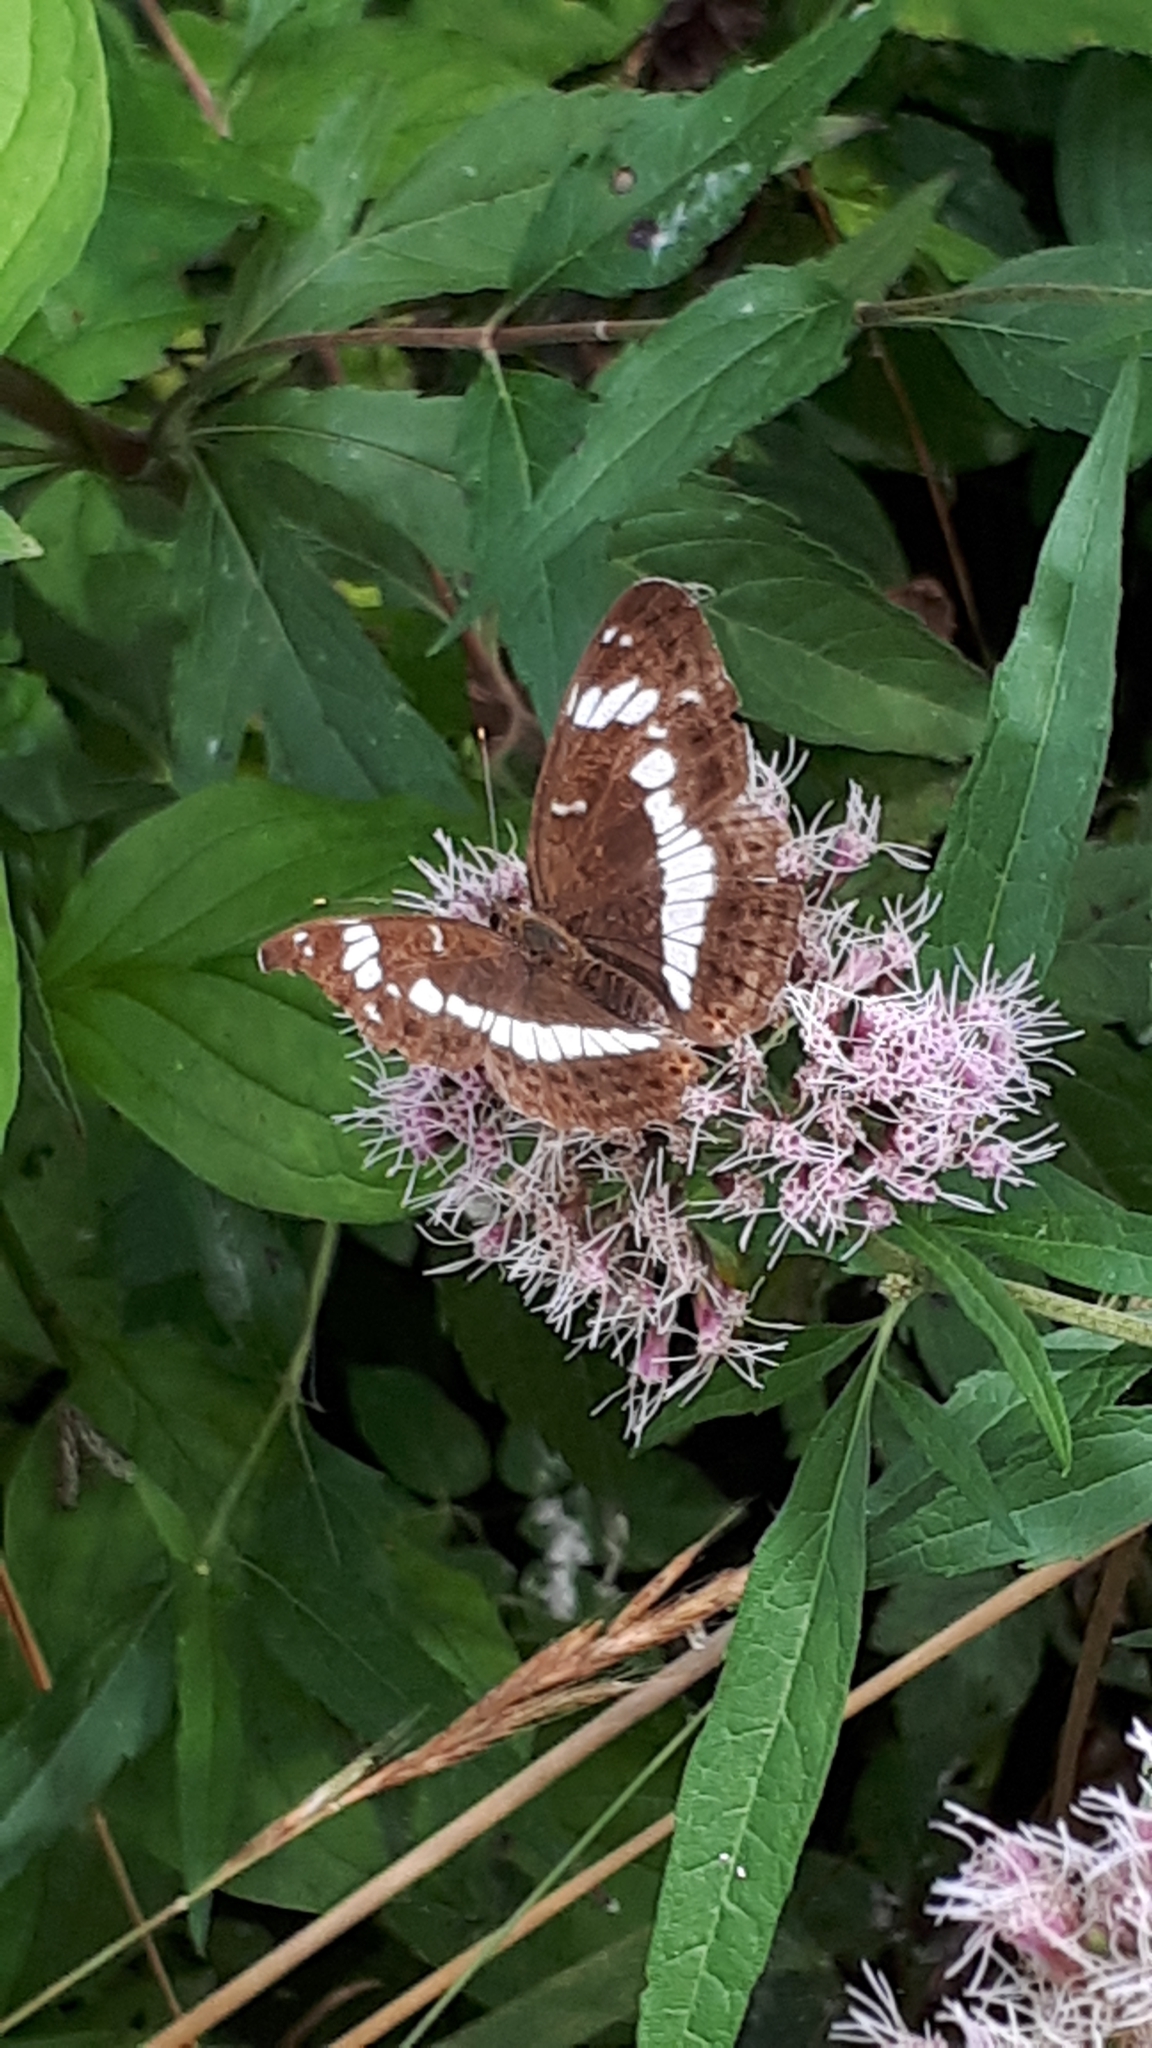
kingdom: Animalia
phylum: Arthropoda
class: Insecta
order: Lepidoptera
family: Nymphalidae
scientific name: Nymphalidae
